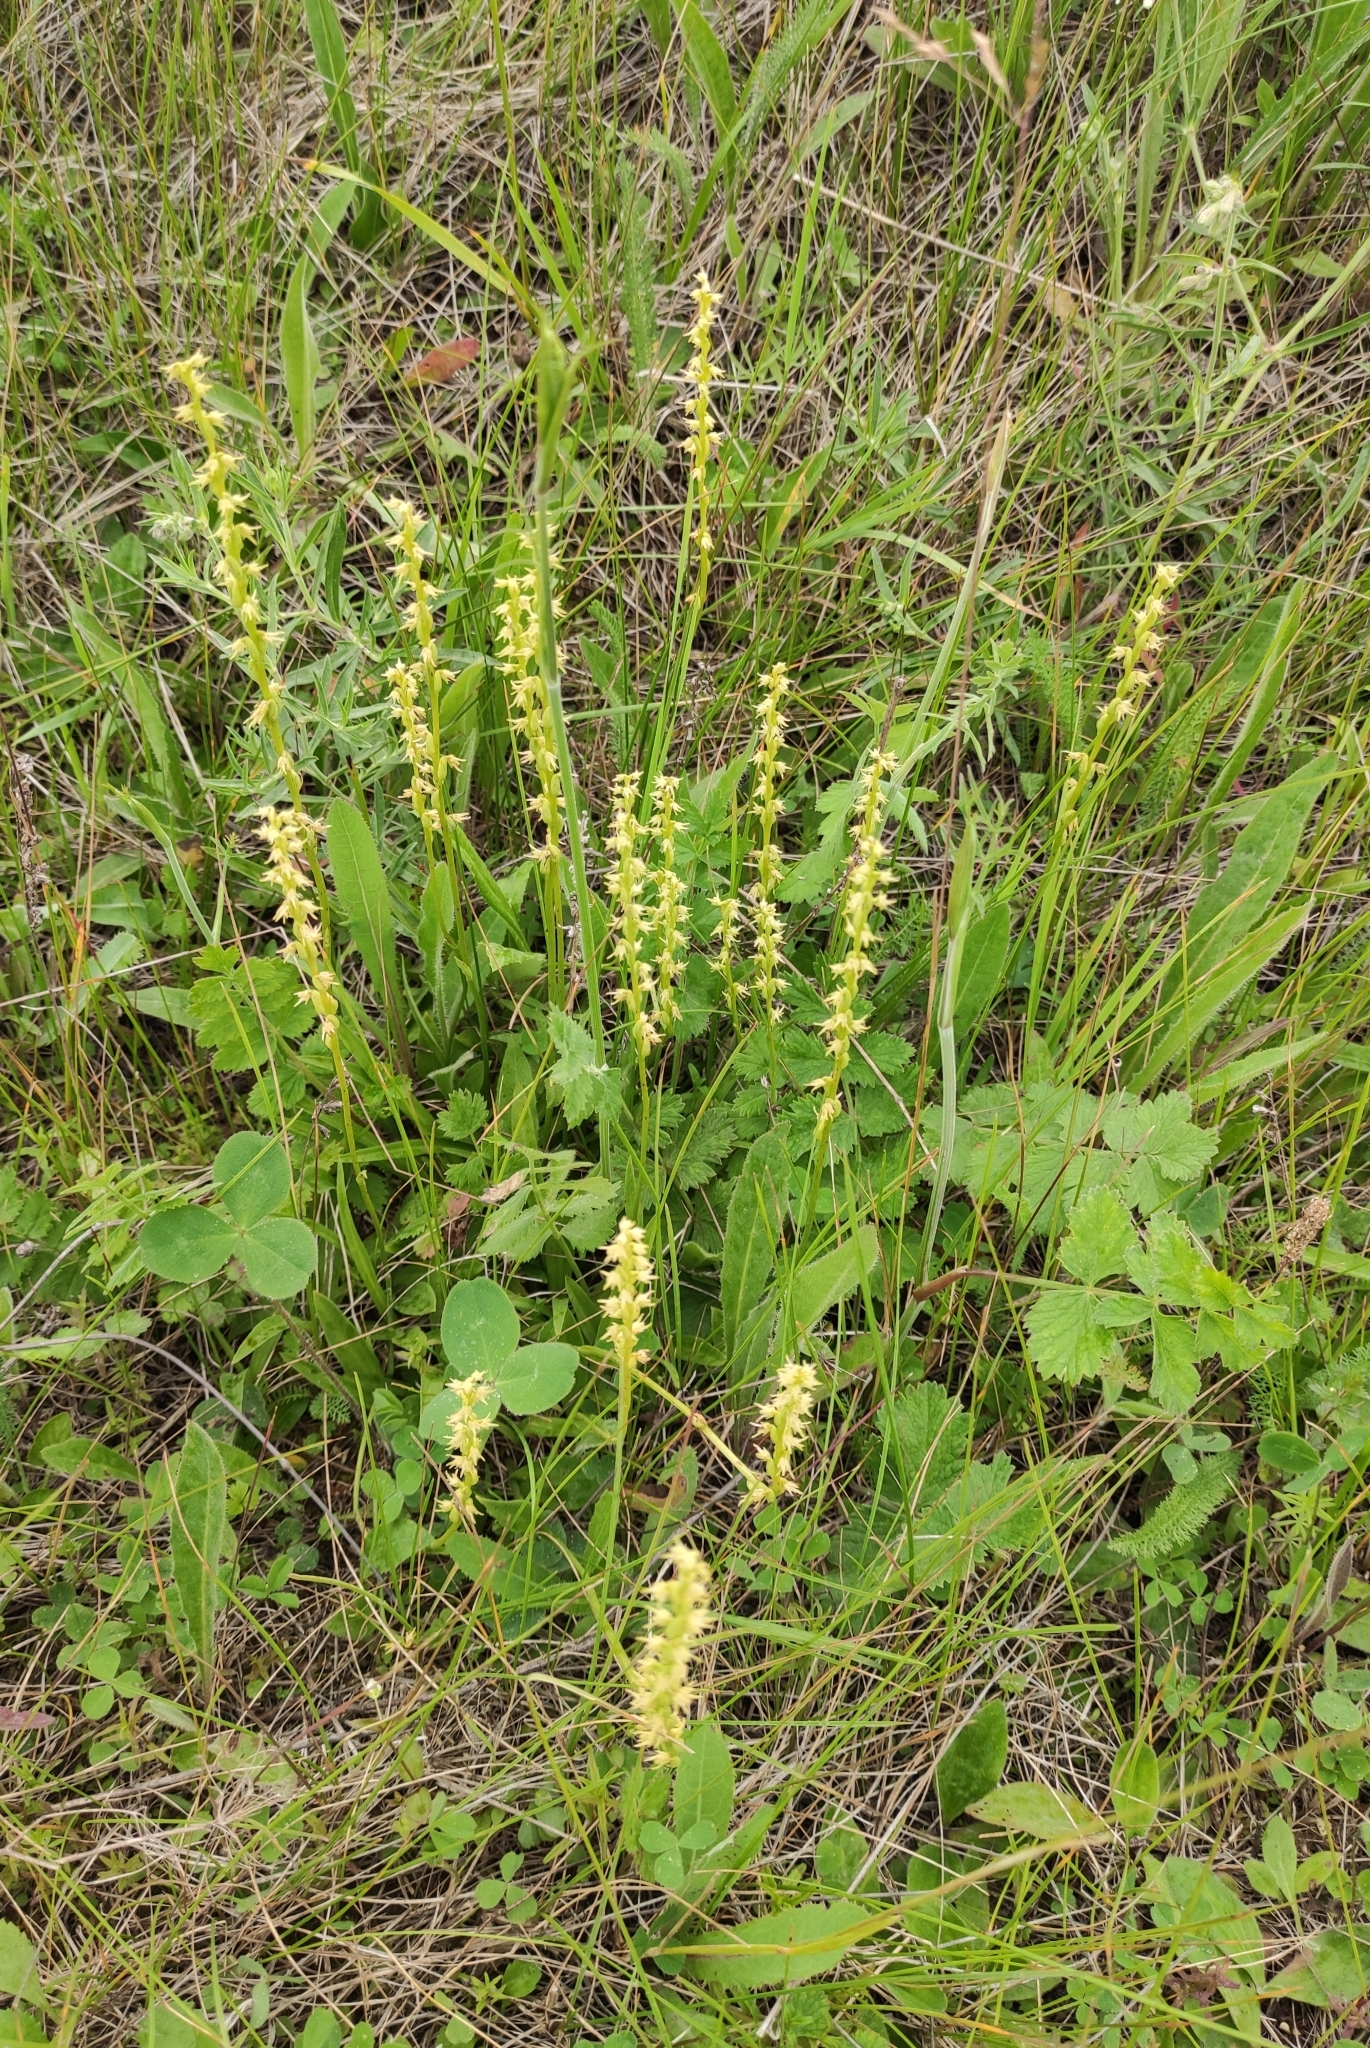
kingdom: Plantae
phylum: Tracheophyta
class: Liliopsida
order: Asparagales
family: Orchidaceae
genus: Herminium
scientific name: Herminium monorchis
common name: Musk orchid
